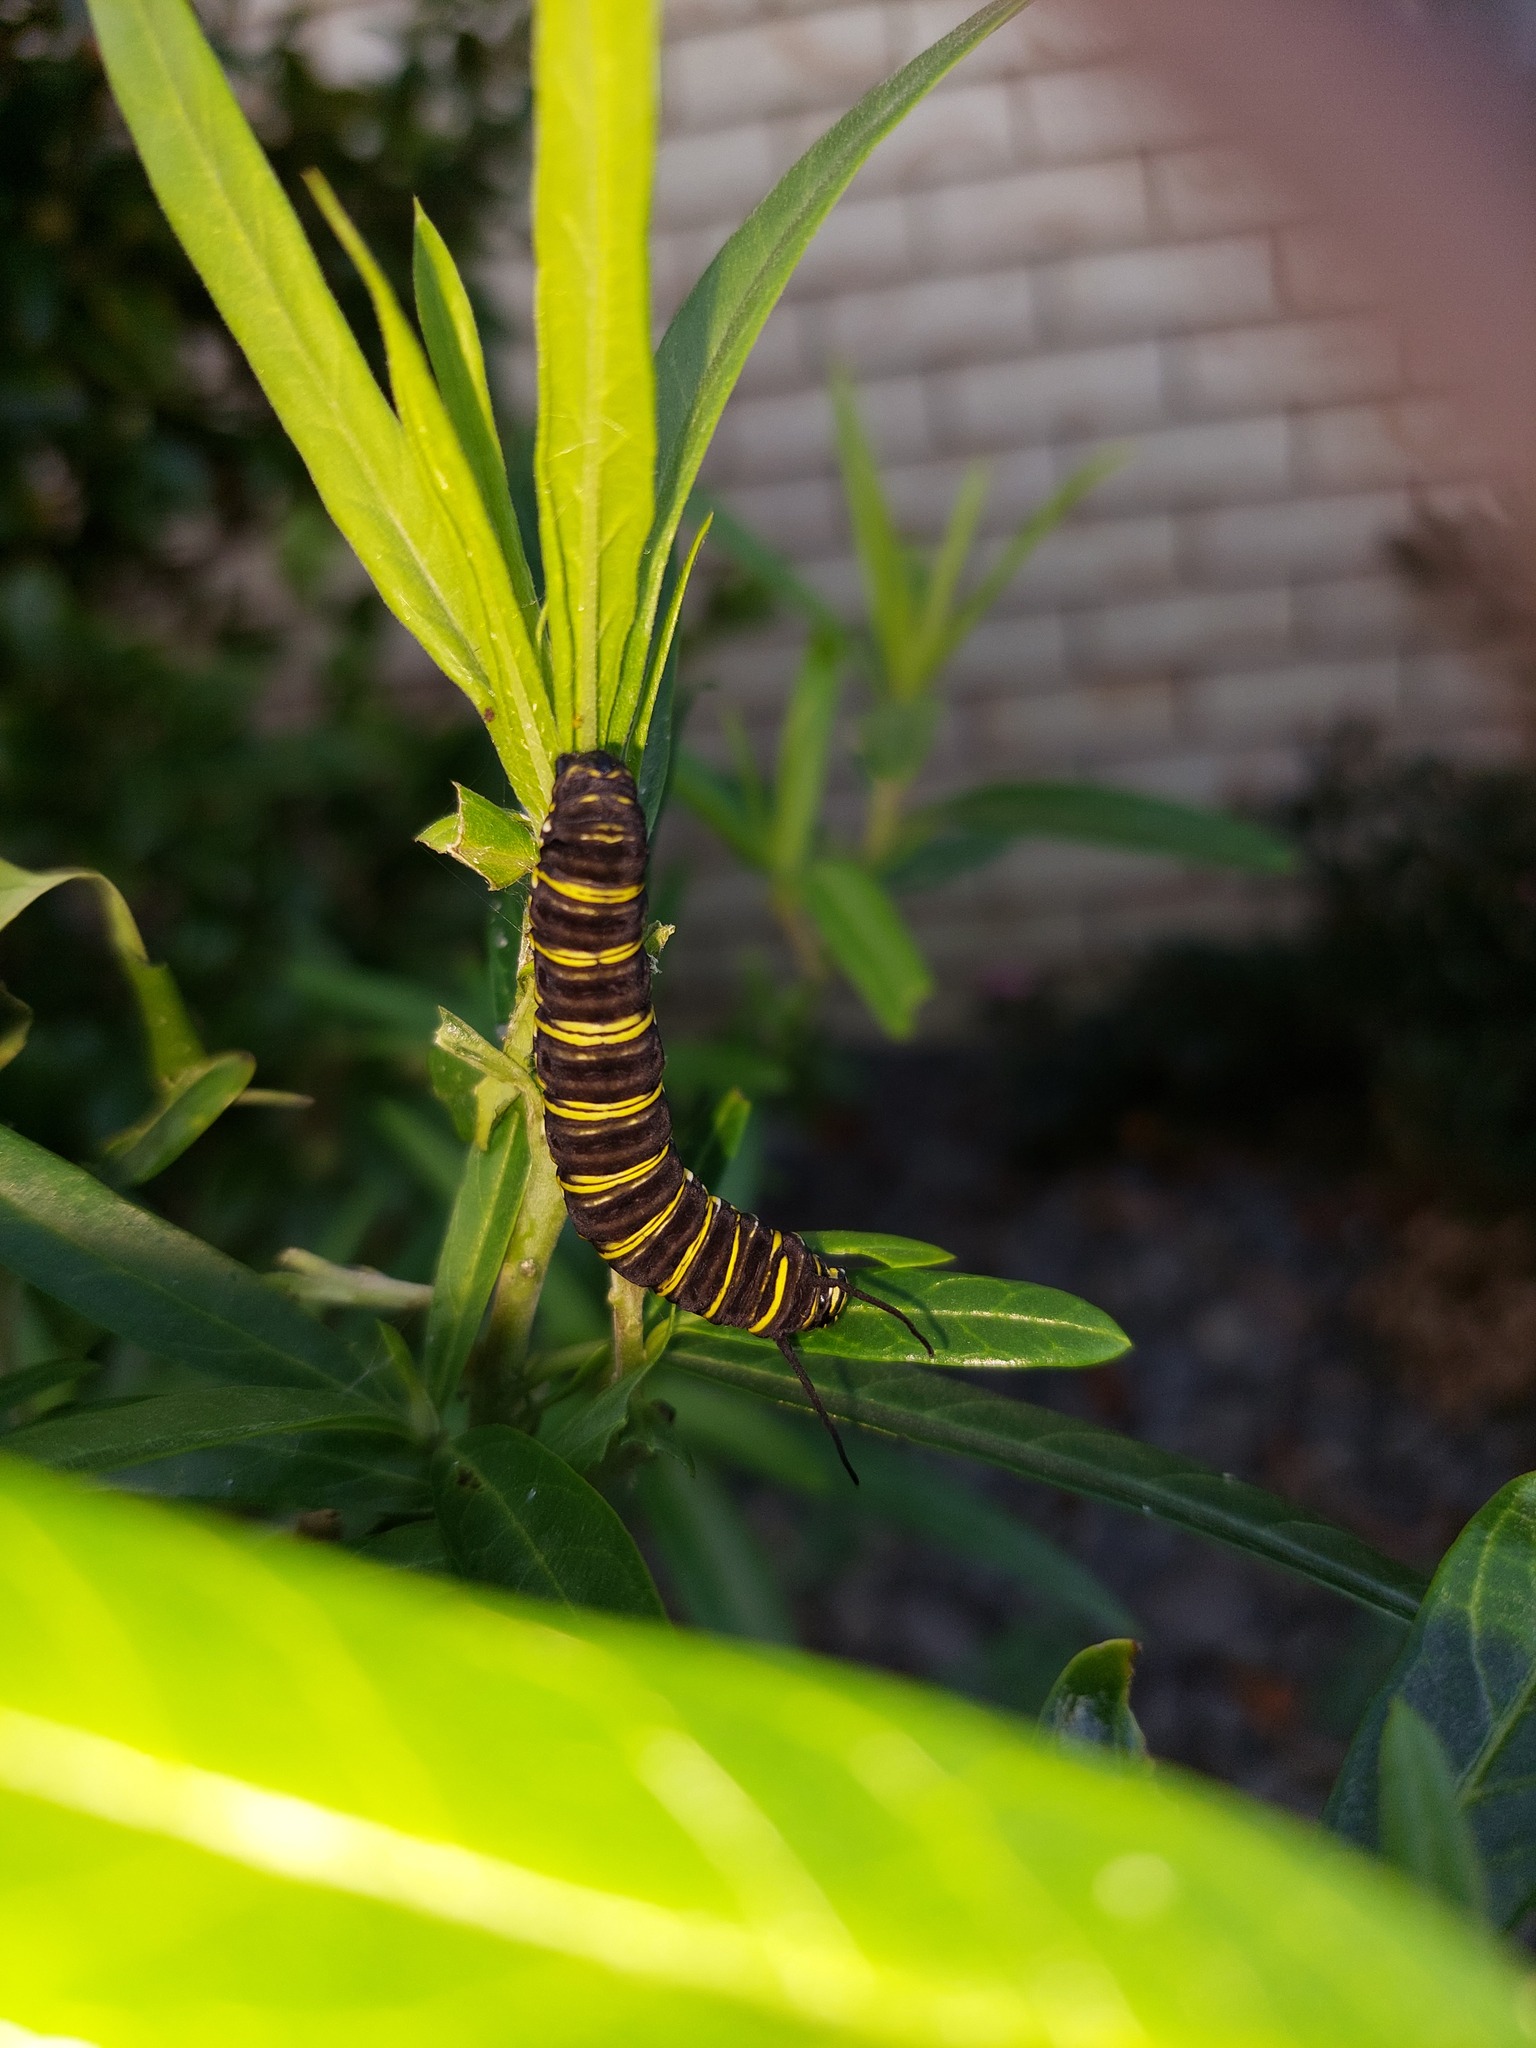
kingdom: Animalia
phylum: Arthropoda
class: Insecta
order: Lepidoptera
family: Nymphalidae
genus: Danaus
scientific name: Danaus plexippus
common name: Monarch
